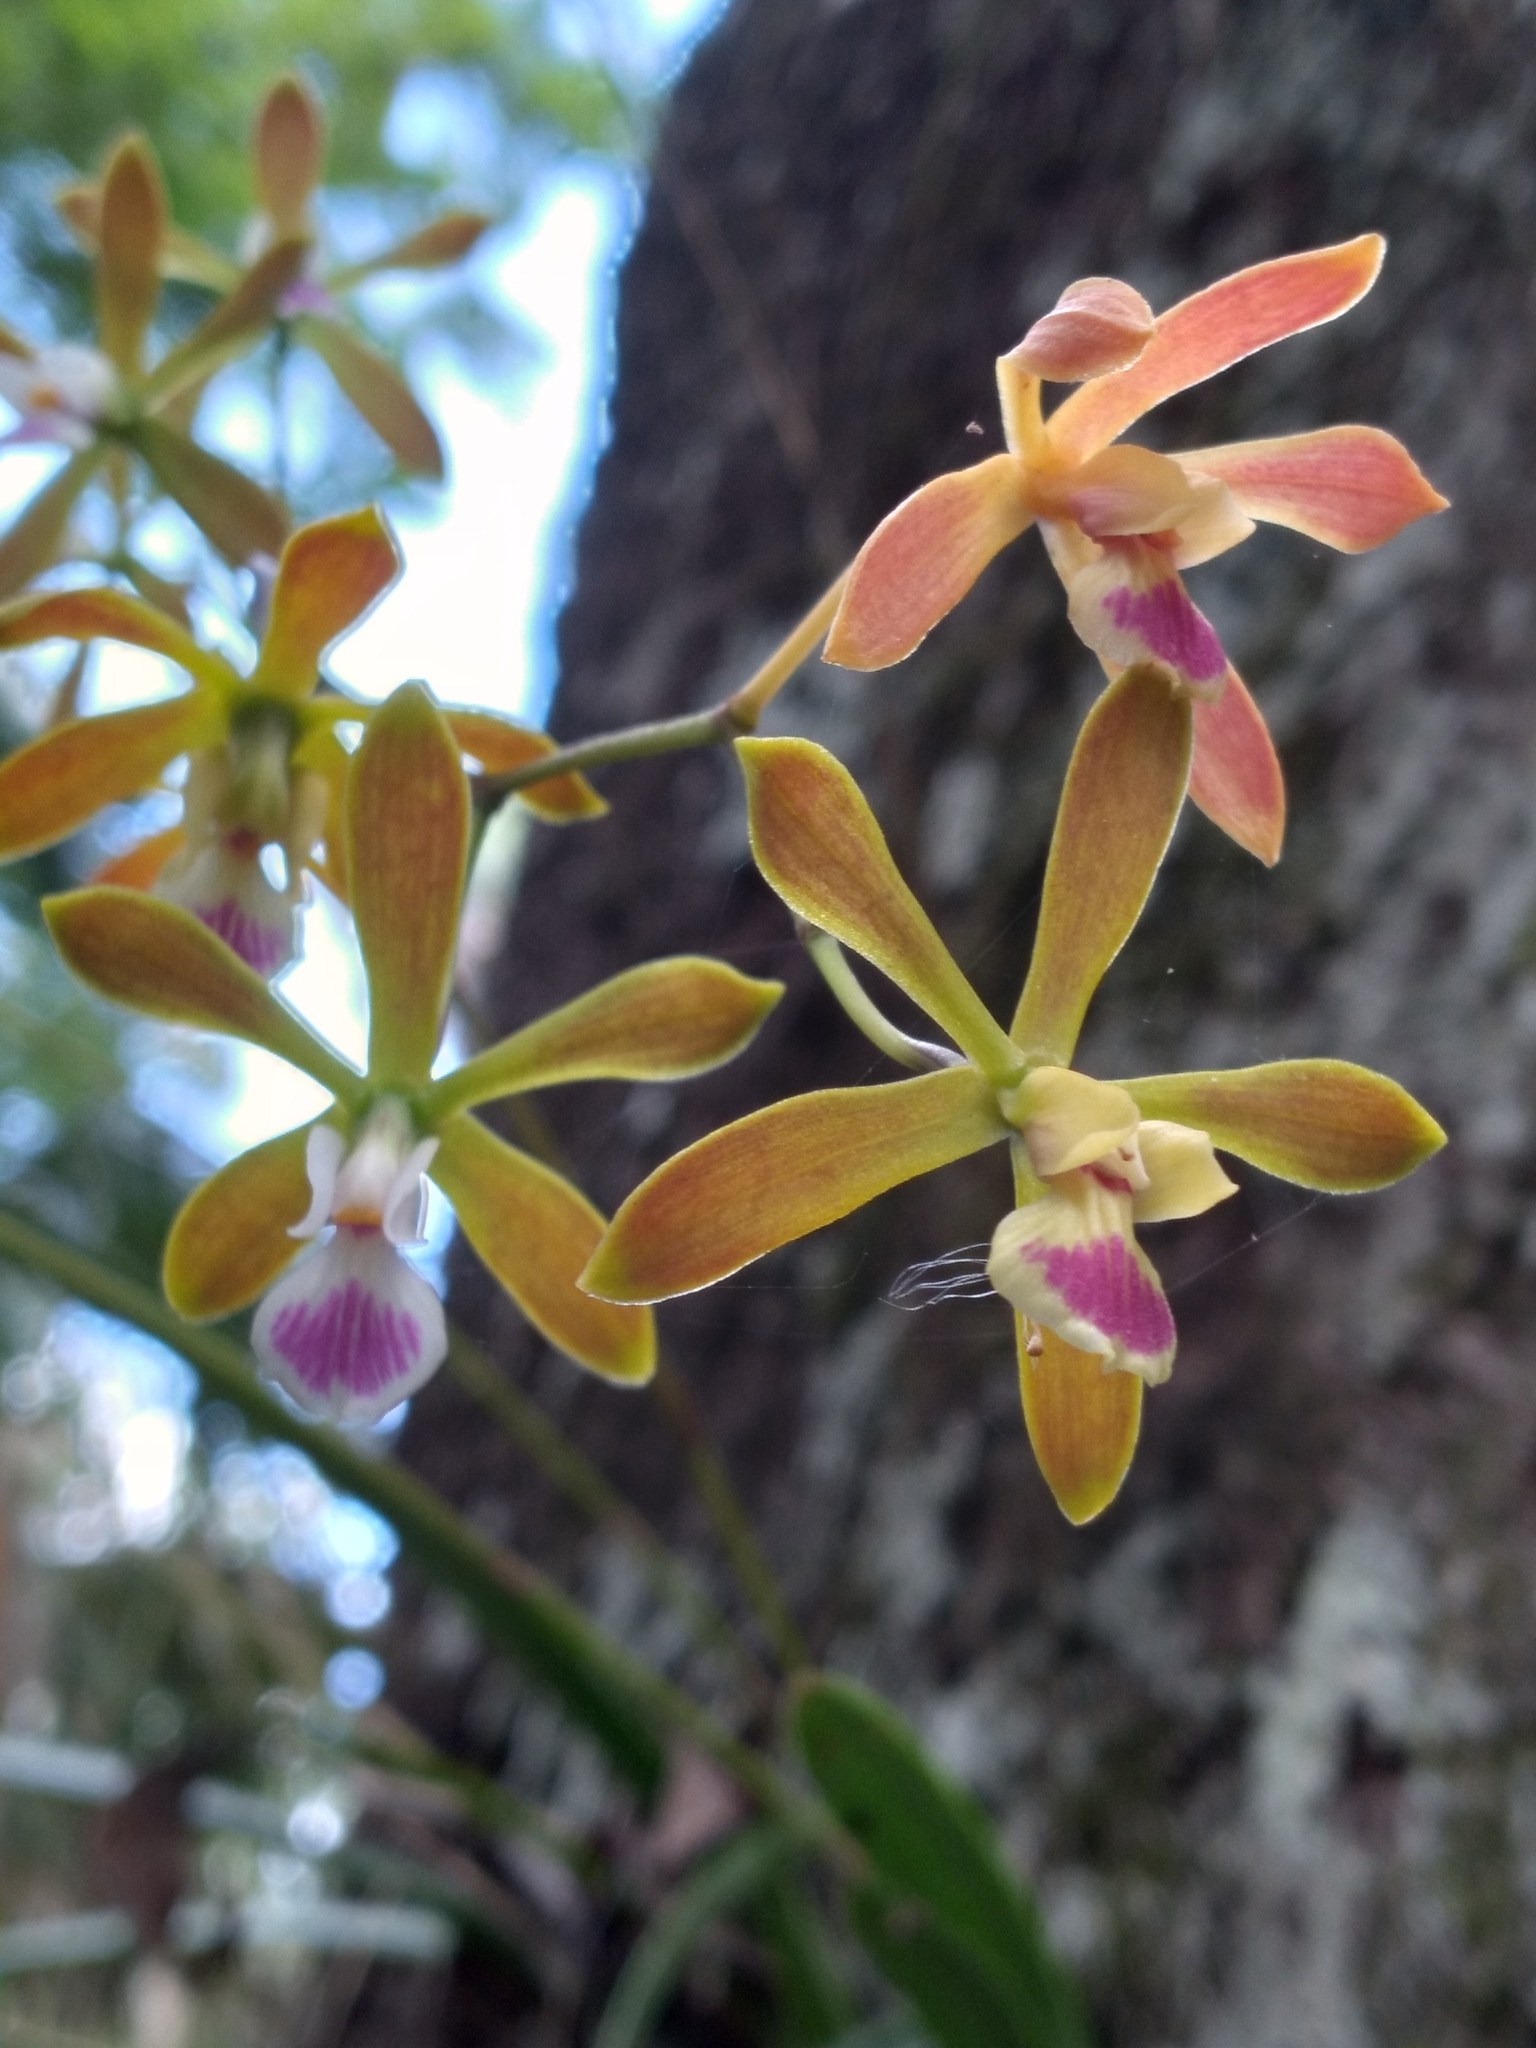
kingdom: Plantae
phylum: Tracheophyta
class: Liliopsida
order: Asparagales
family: Orchidaceae
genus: Encyclia
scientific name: Encyclia tampensis
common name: Florida butterfly orchid
